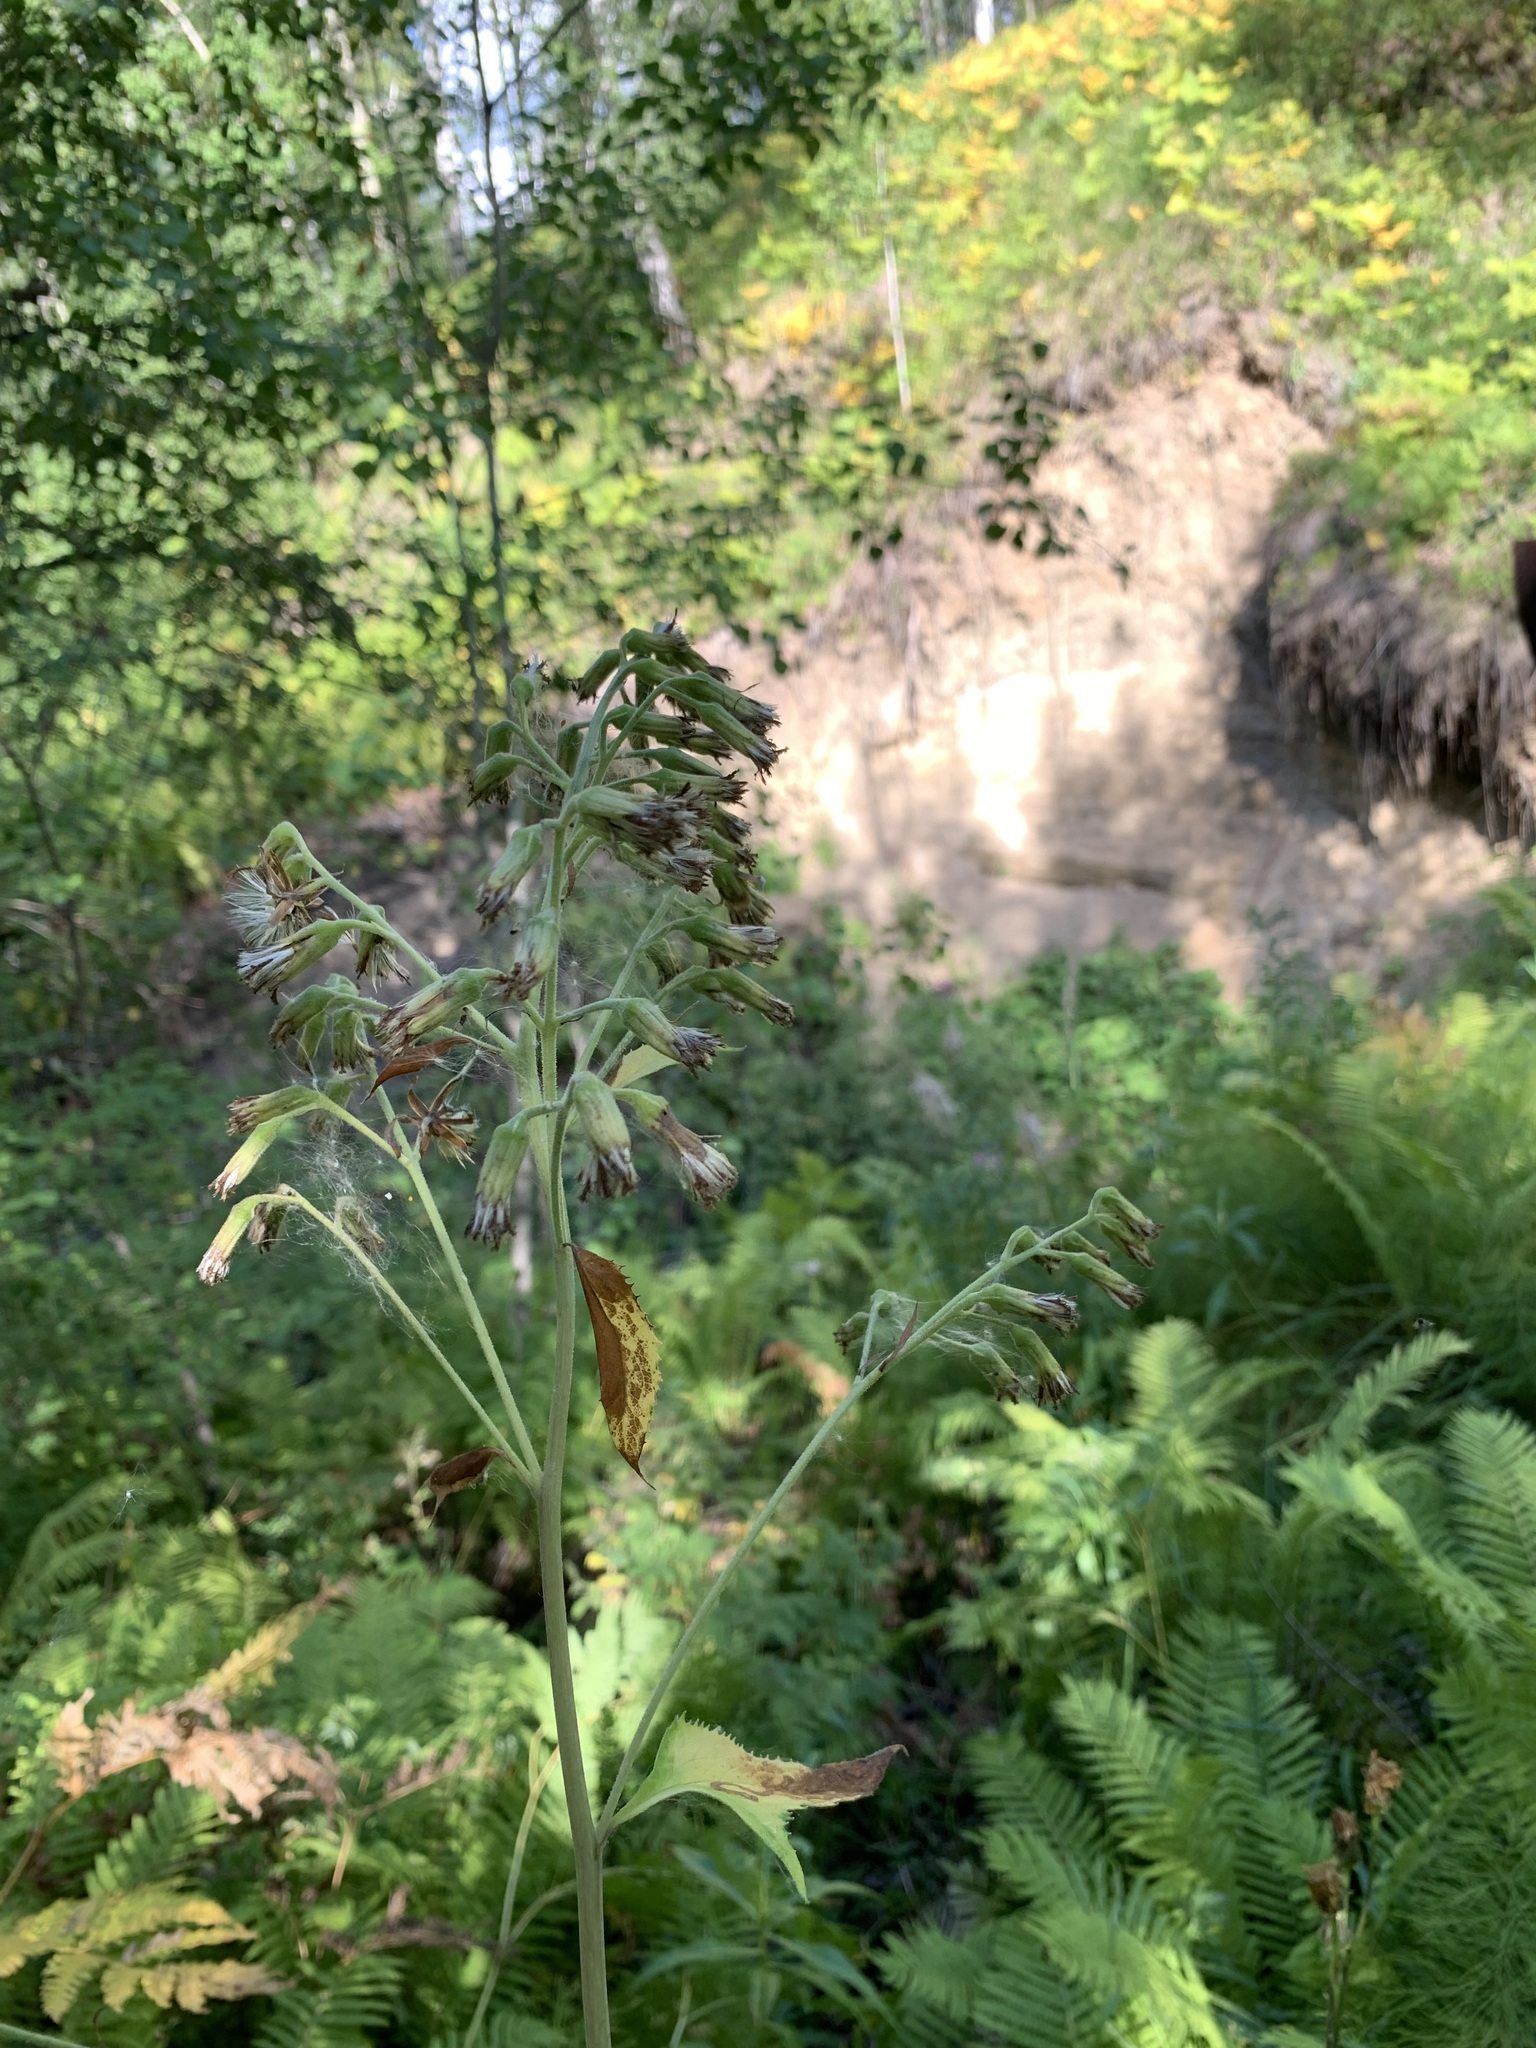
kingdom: Plantae
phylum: Tracheophyta
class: Magnoliopsida
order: Asterales
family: Asteraceae
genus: Parasenecio
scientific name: Parasenecio hastatus
